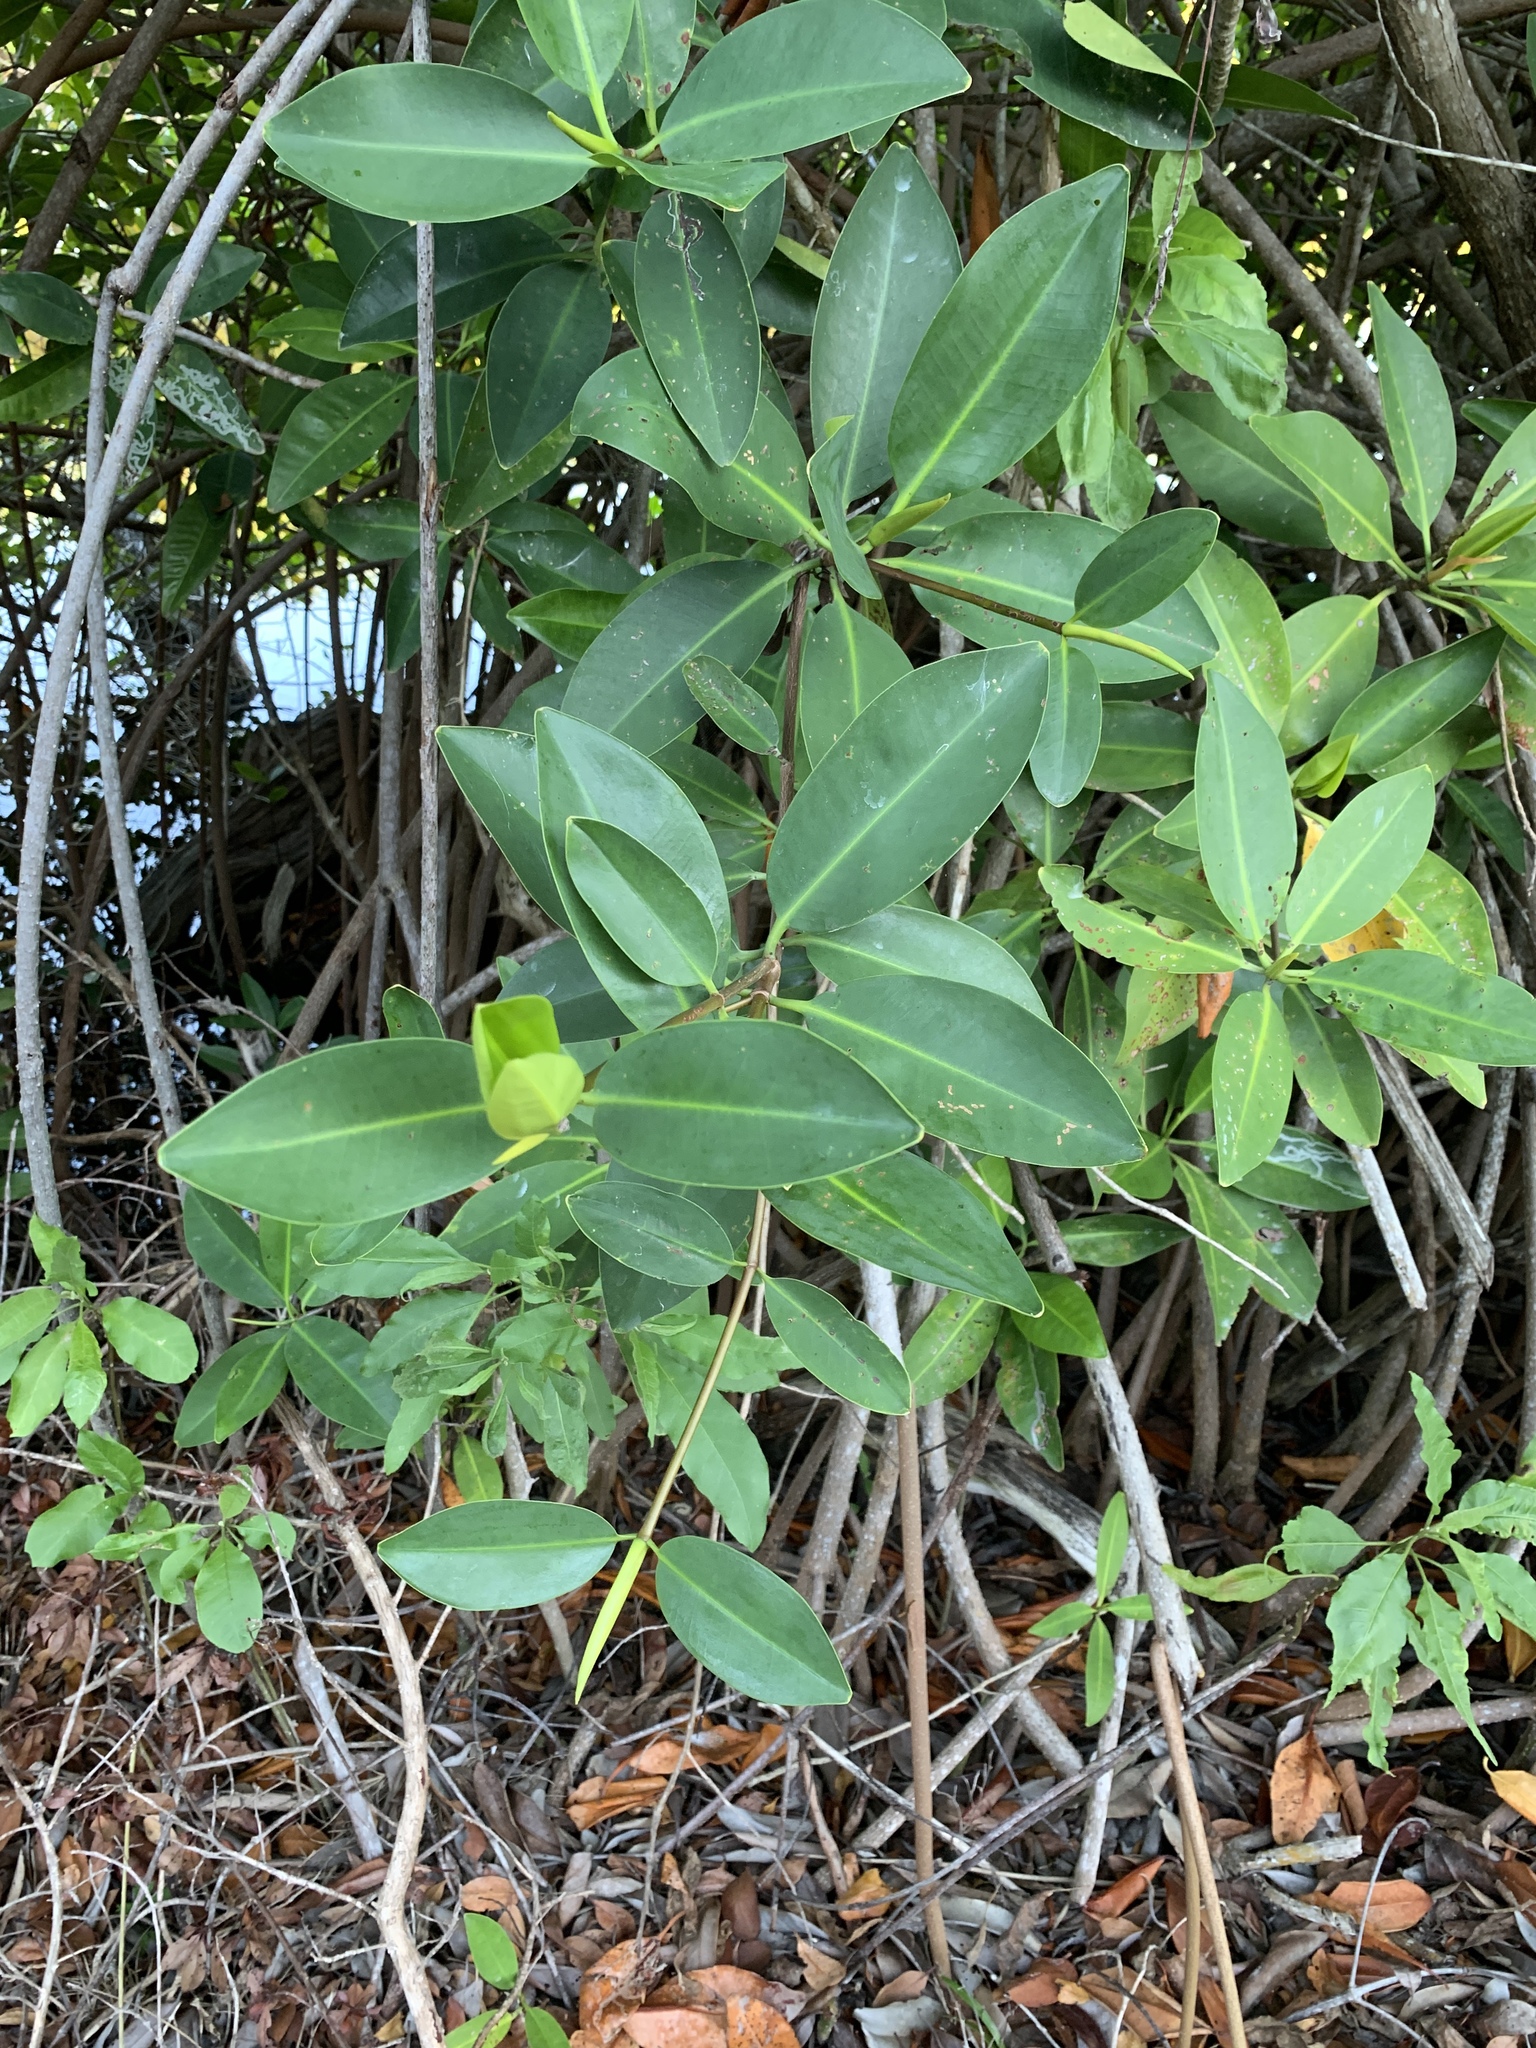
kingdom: Plantae
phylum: Tracheophyta
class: Magnoliopsida
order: Malpighiales
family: Rhizophoraceae
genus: Rhizophora
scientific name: Rhizophora mangle
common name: Red mangrove
